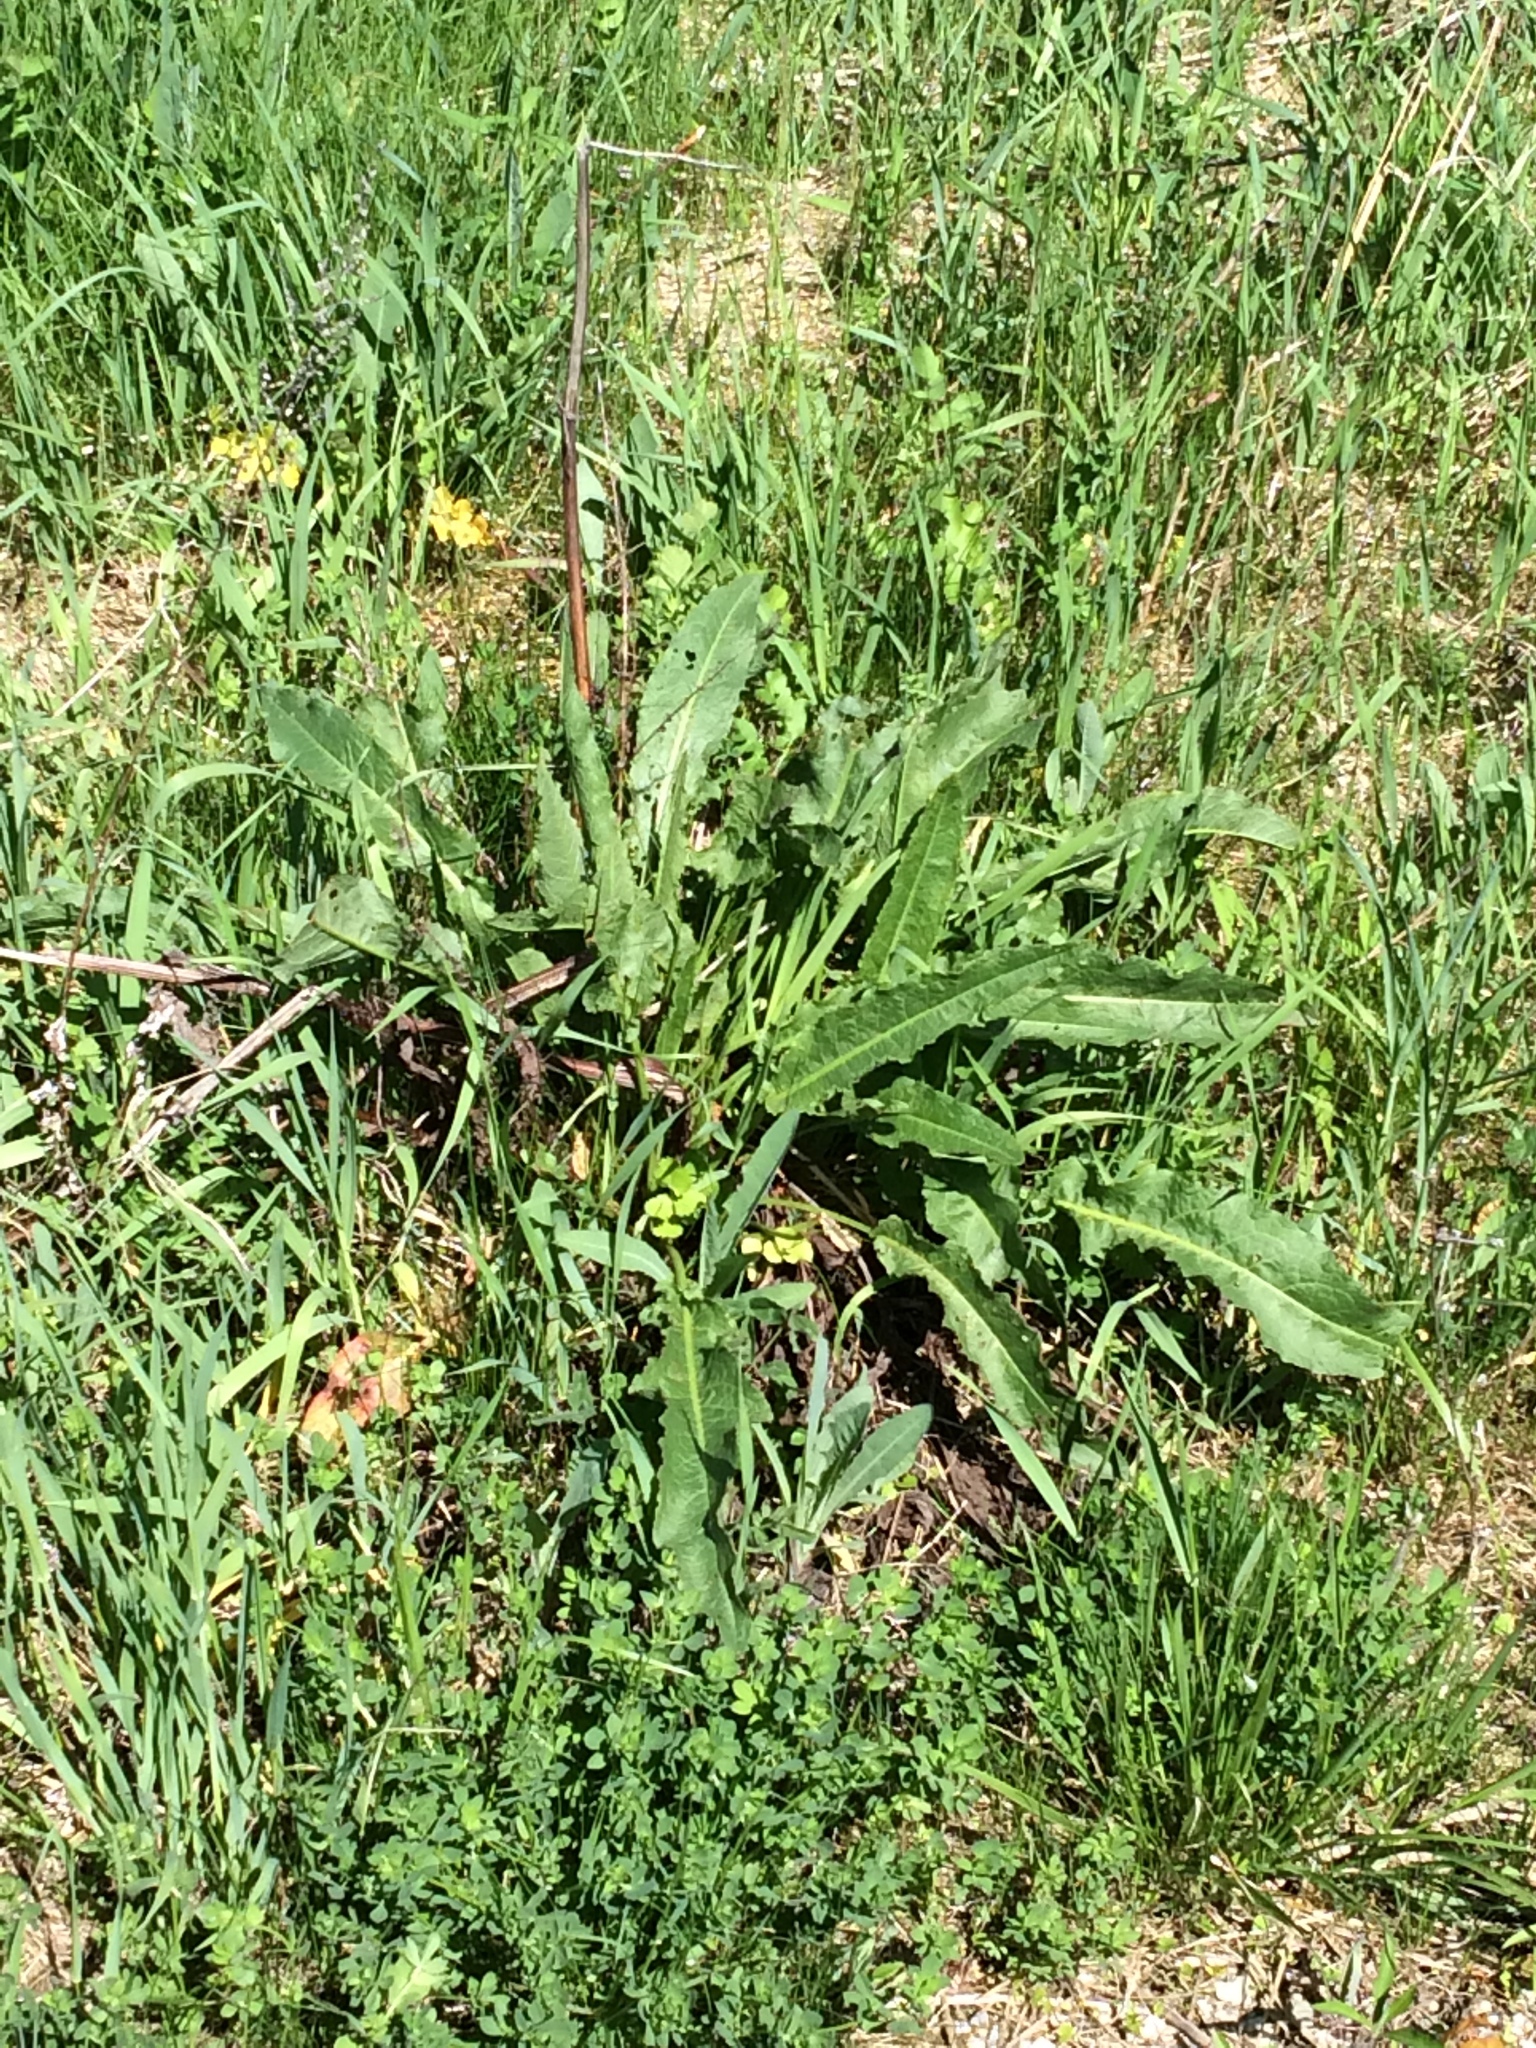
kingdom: Plantae
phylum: Tracheophyta
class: Magnoliopsida
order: Caryophyllales
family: Polygonaceae
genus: Rumex
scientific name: Rumex crispus
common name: Curled dock
